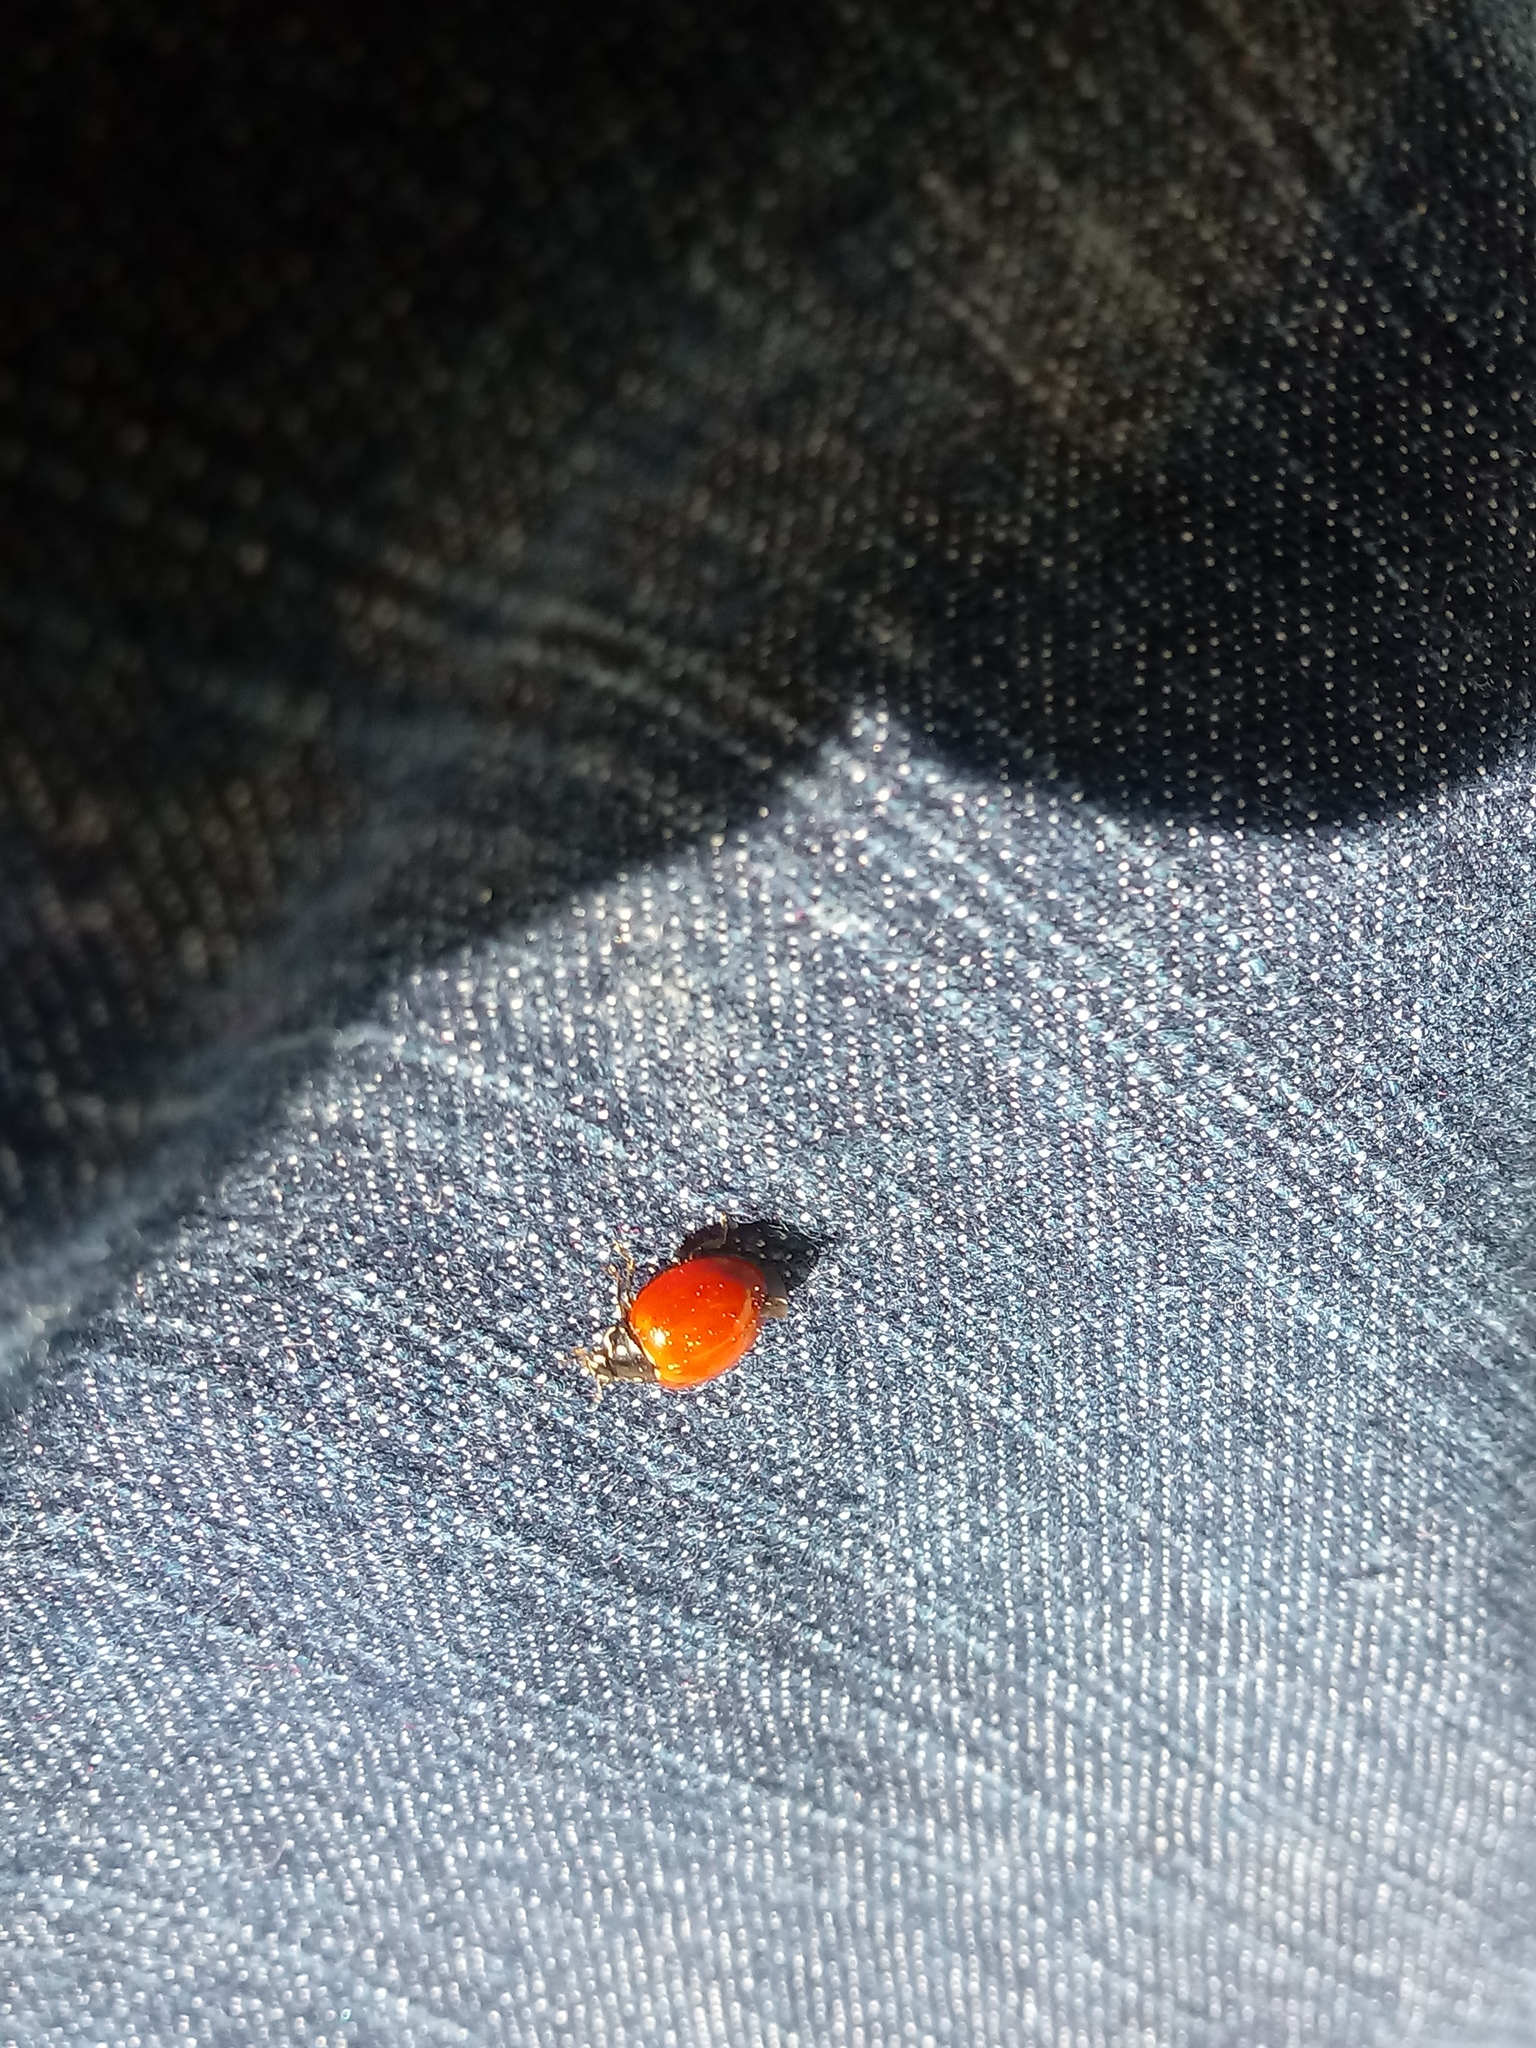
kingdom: Animalia
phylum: Arthropoda
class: Insecta
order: Coleoptera
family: Coccinellidae
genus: Cycloneda
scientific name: Cycloneda sanguinea
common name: Ladybird beetle
